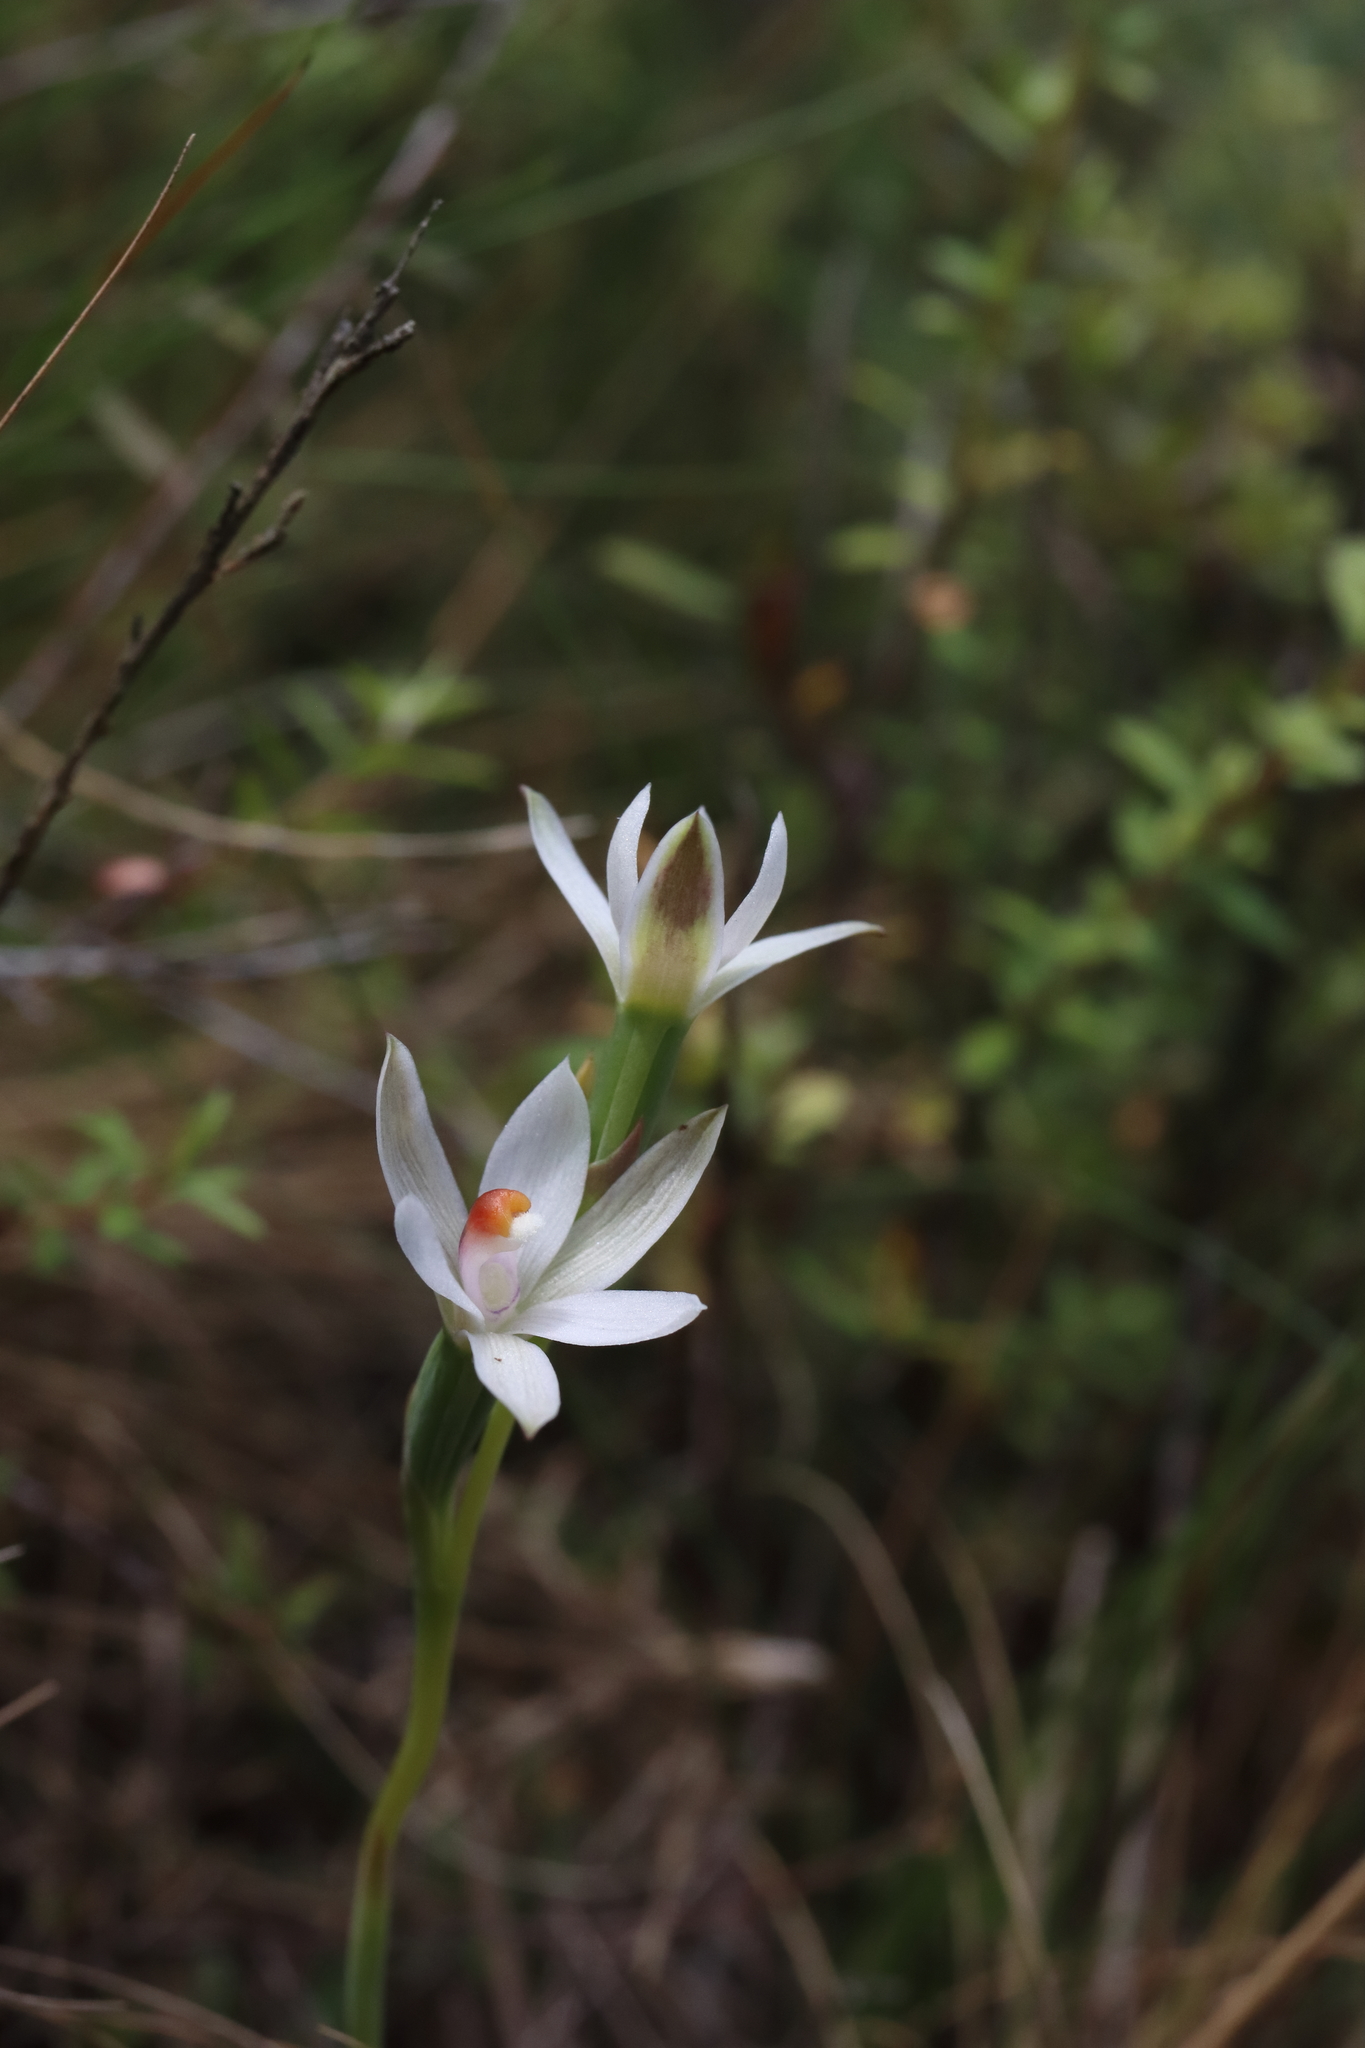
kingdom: Plantae
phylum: Tracheophyta
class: Liliopsida
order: Asparagales
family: Orchidaceae
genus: Thelymitra
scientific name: Thelymitra longifolia
